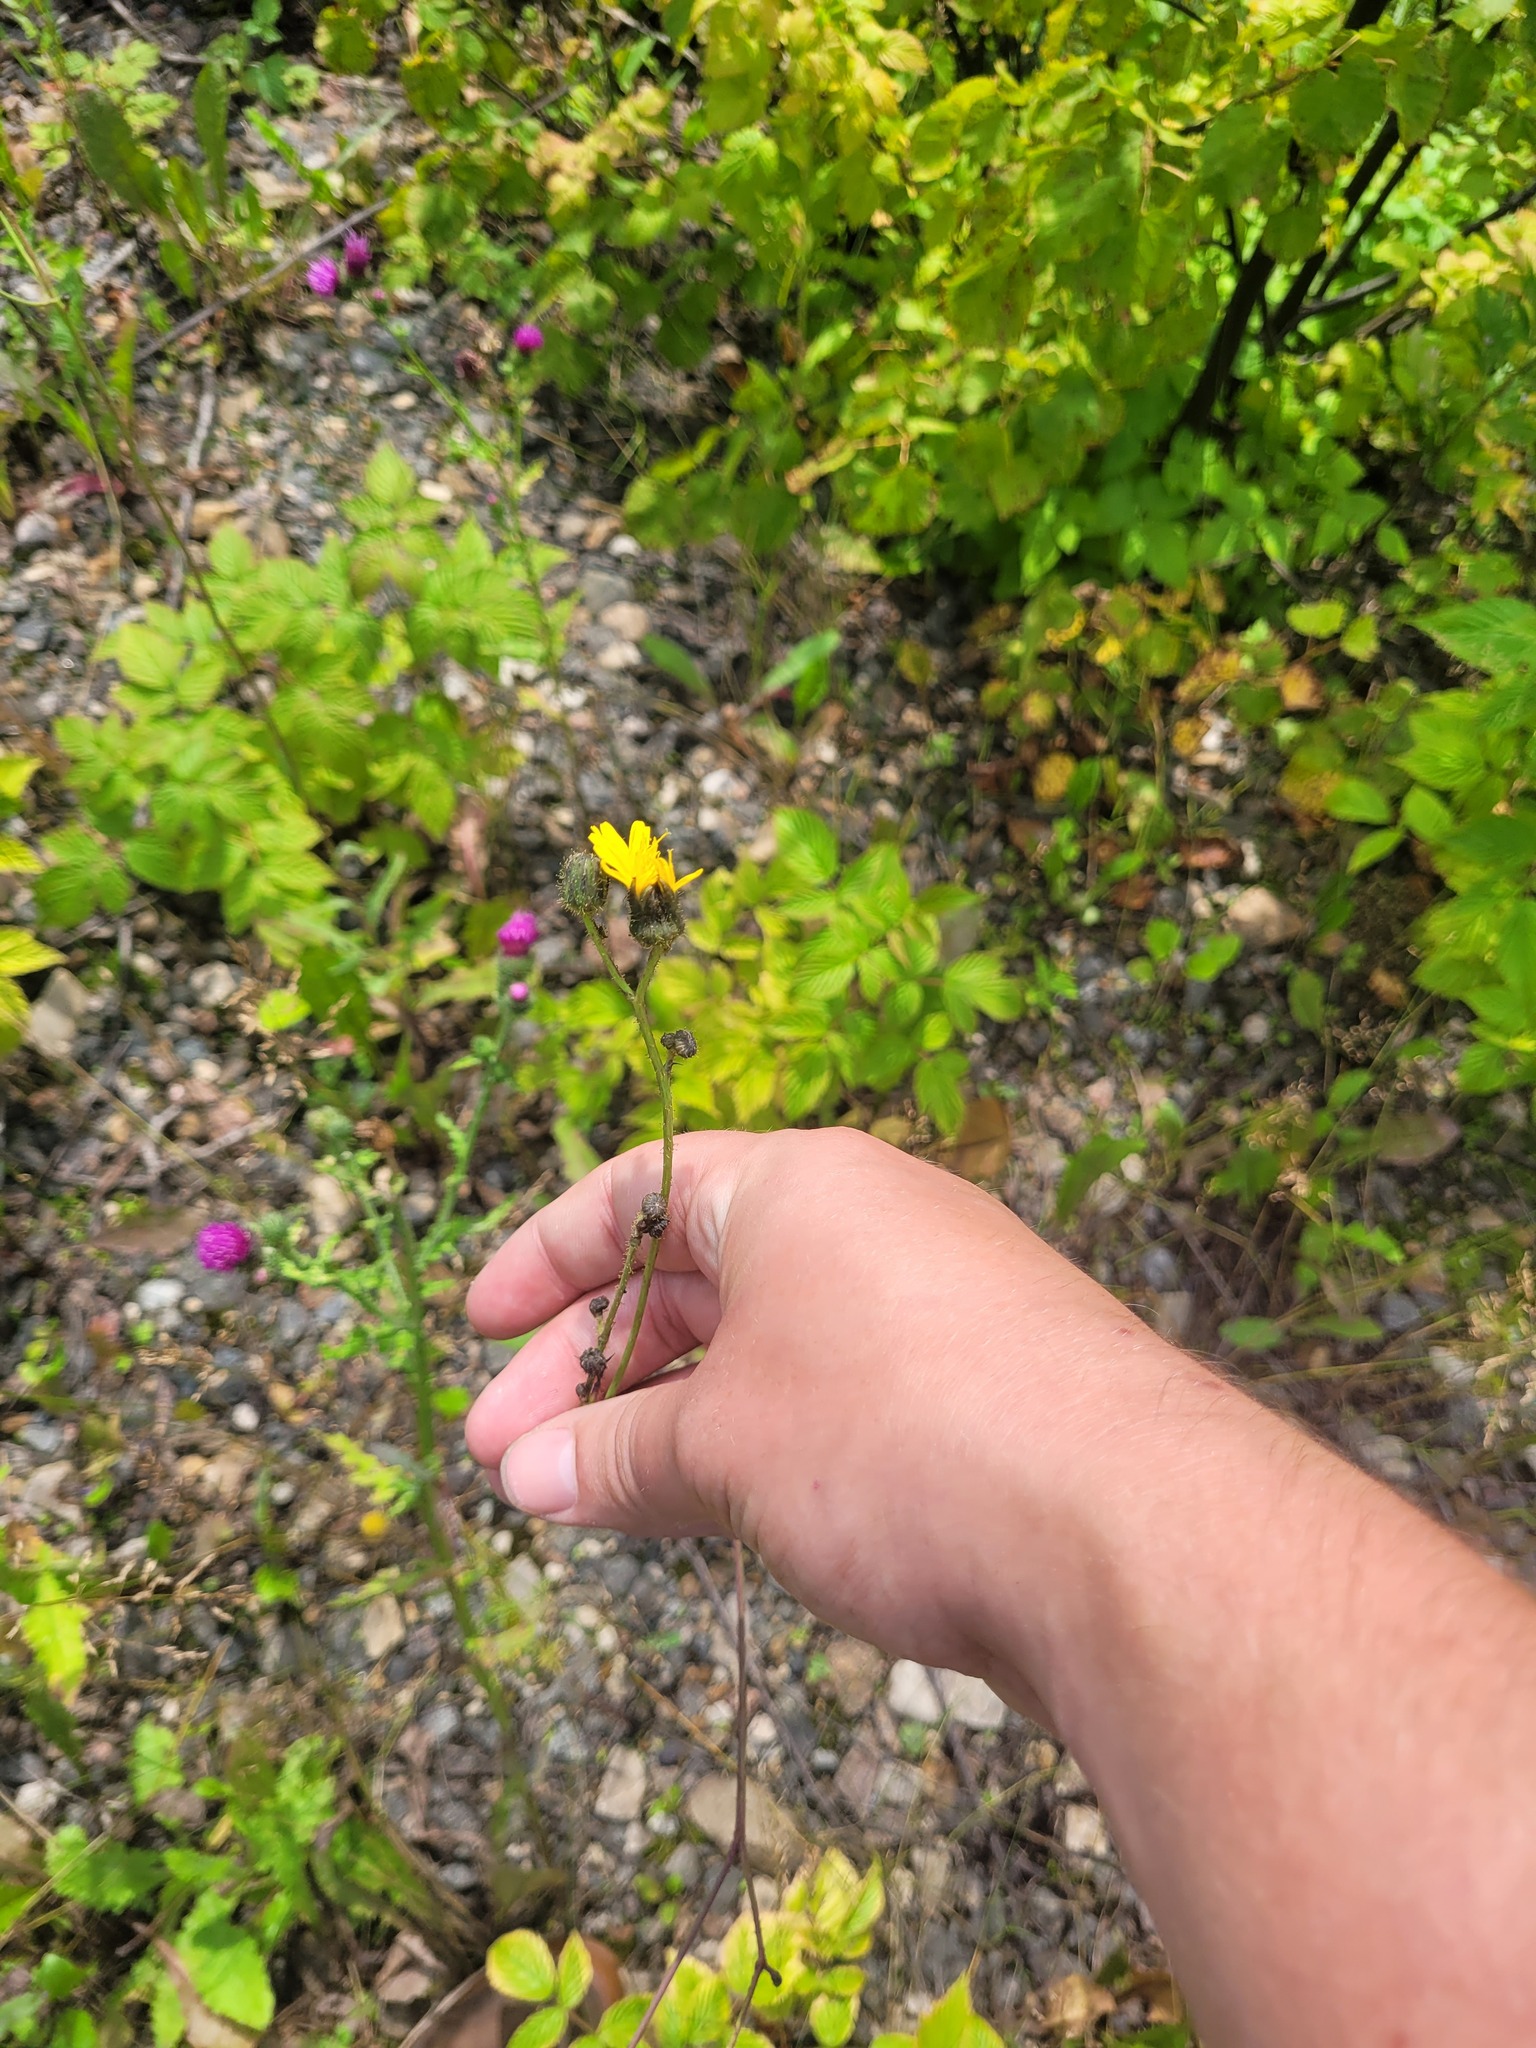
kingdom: Plantae
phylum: Tracheophyta
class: Magnoliopsida
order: Asterales
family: Asteraceae
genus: Sonchus
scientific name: Sonchus arvensis
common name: Perennial sow-thistle
